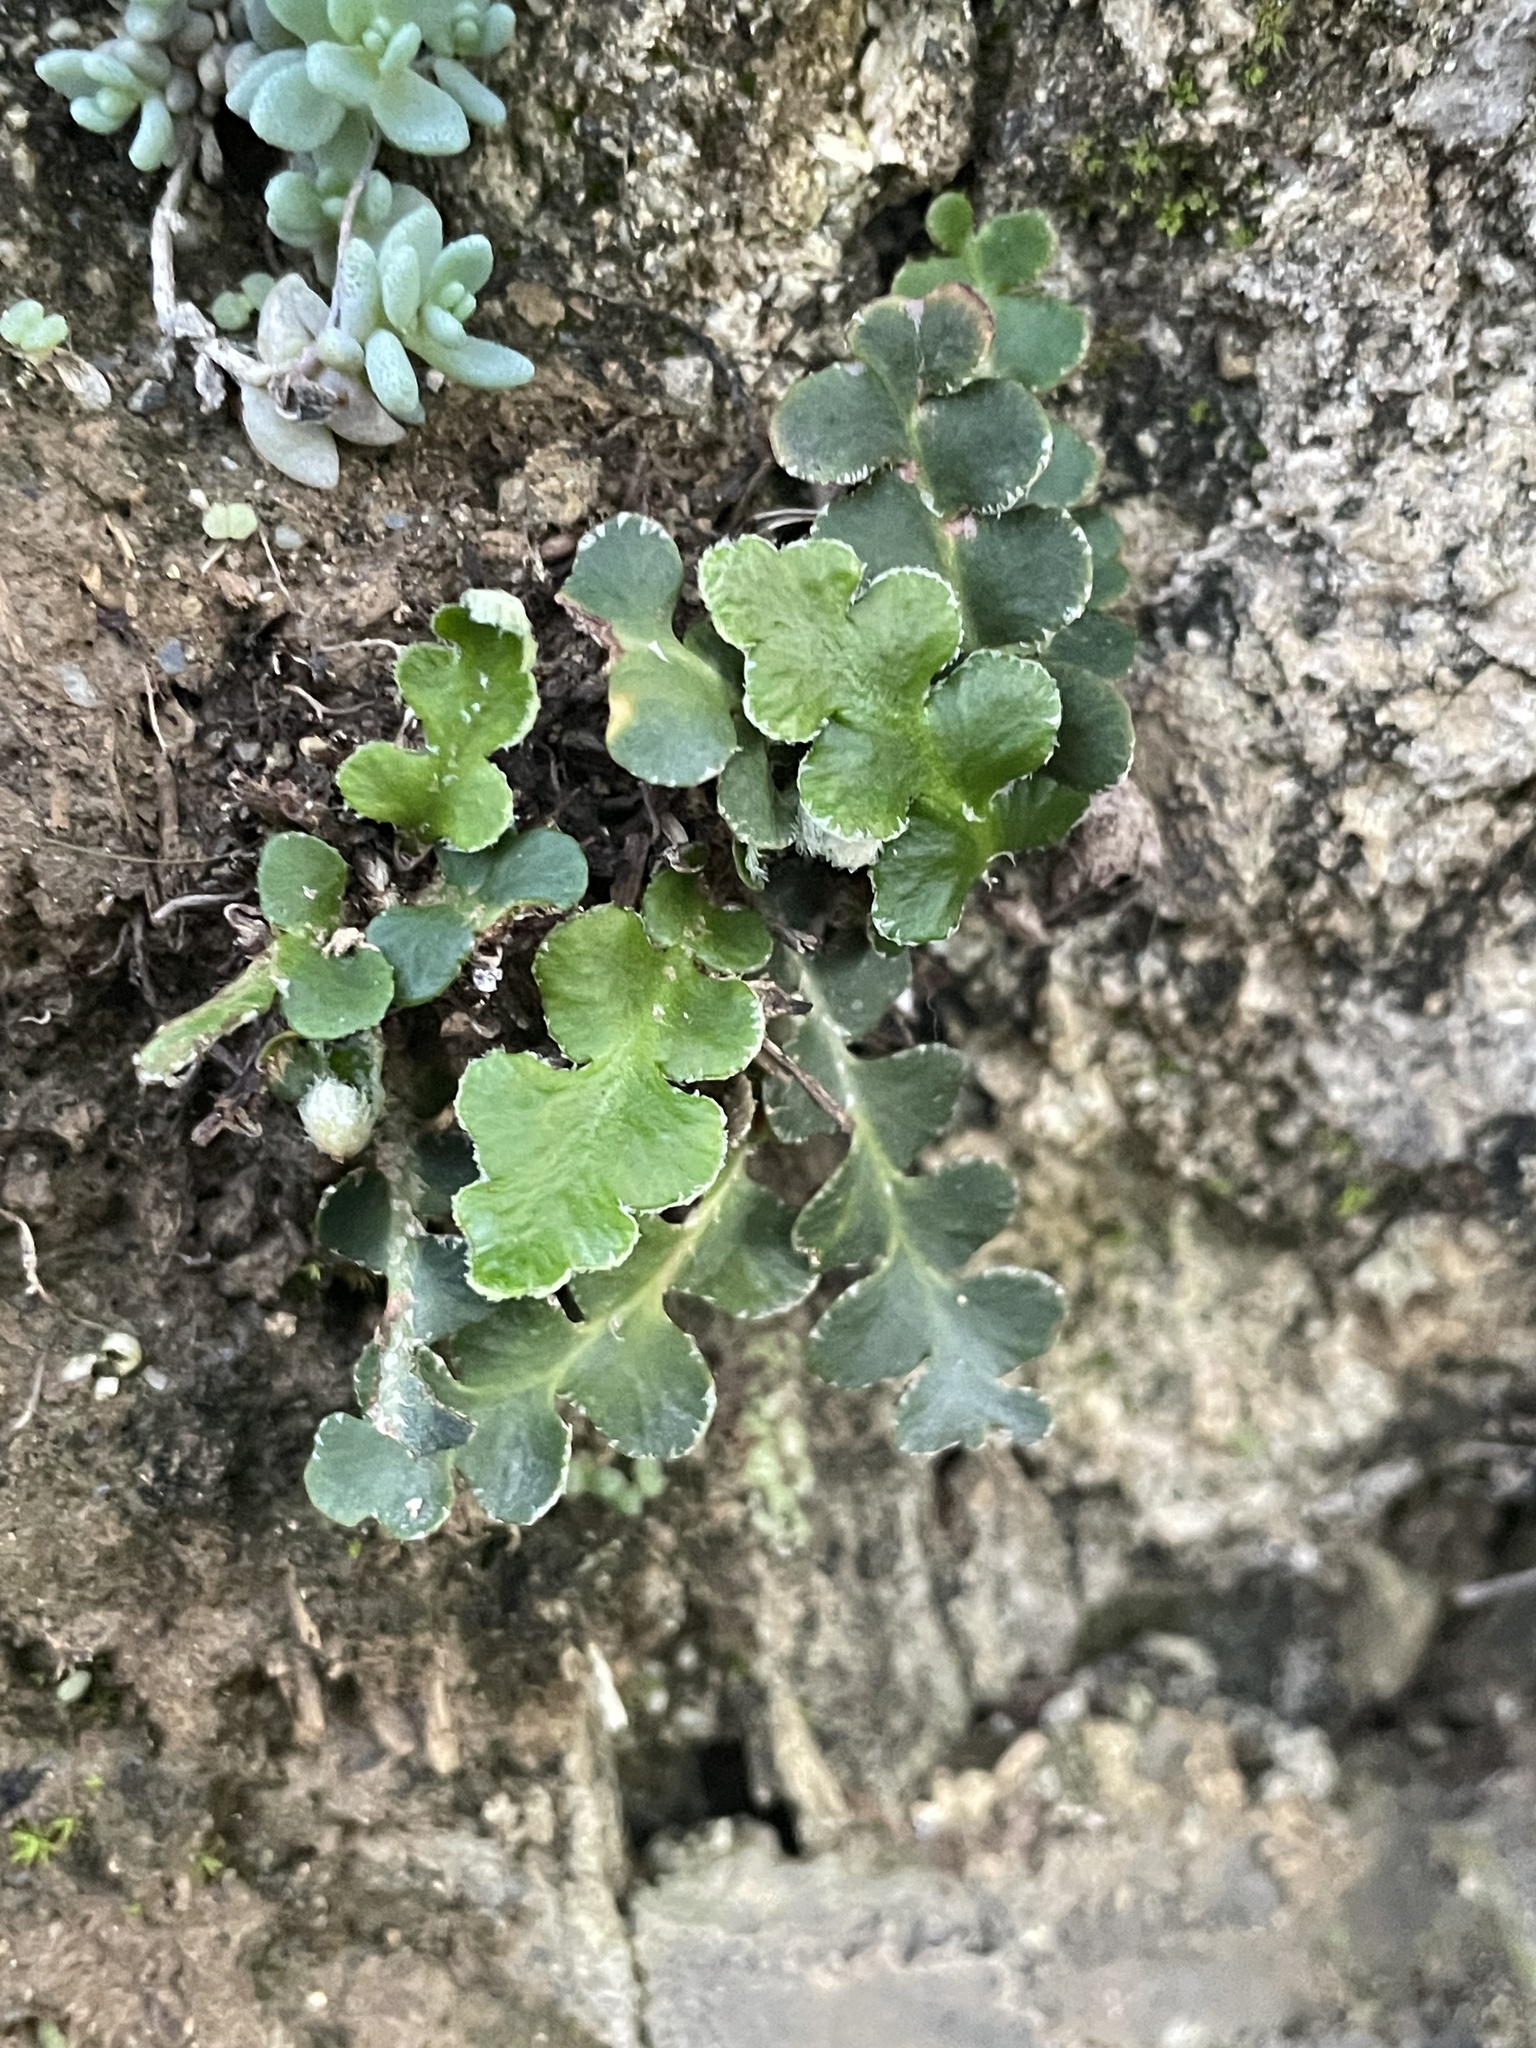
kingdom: Plantae
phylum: Tracheophyta
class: Polypodiopsida
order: Polypodiales
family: Aspleniaceae
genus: Asplenium
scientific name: Asplenium ceterach
